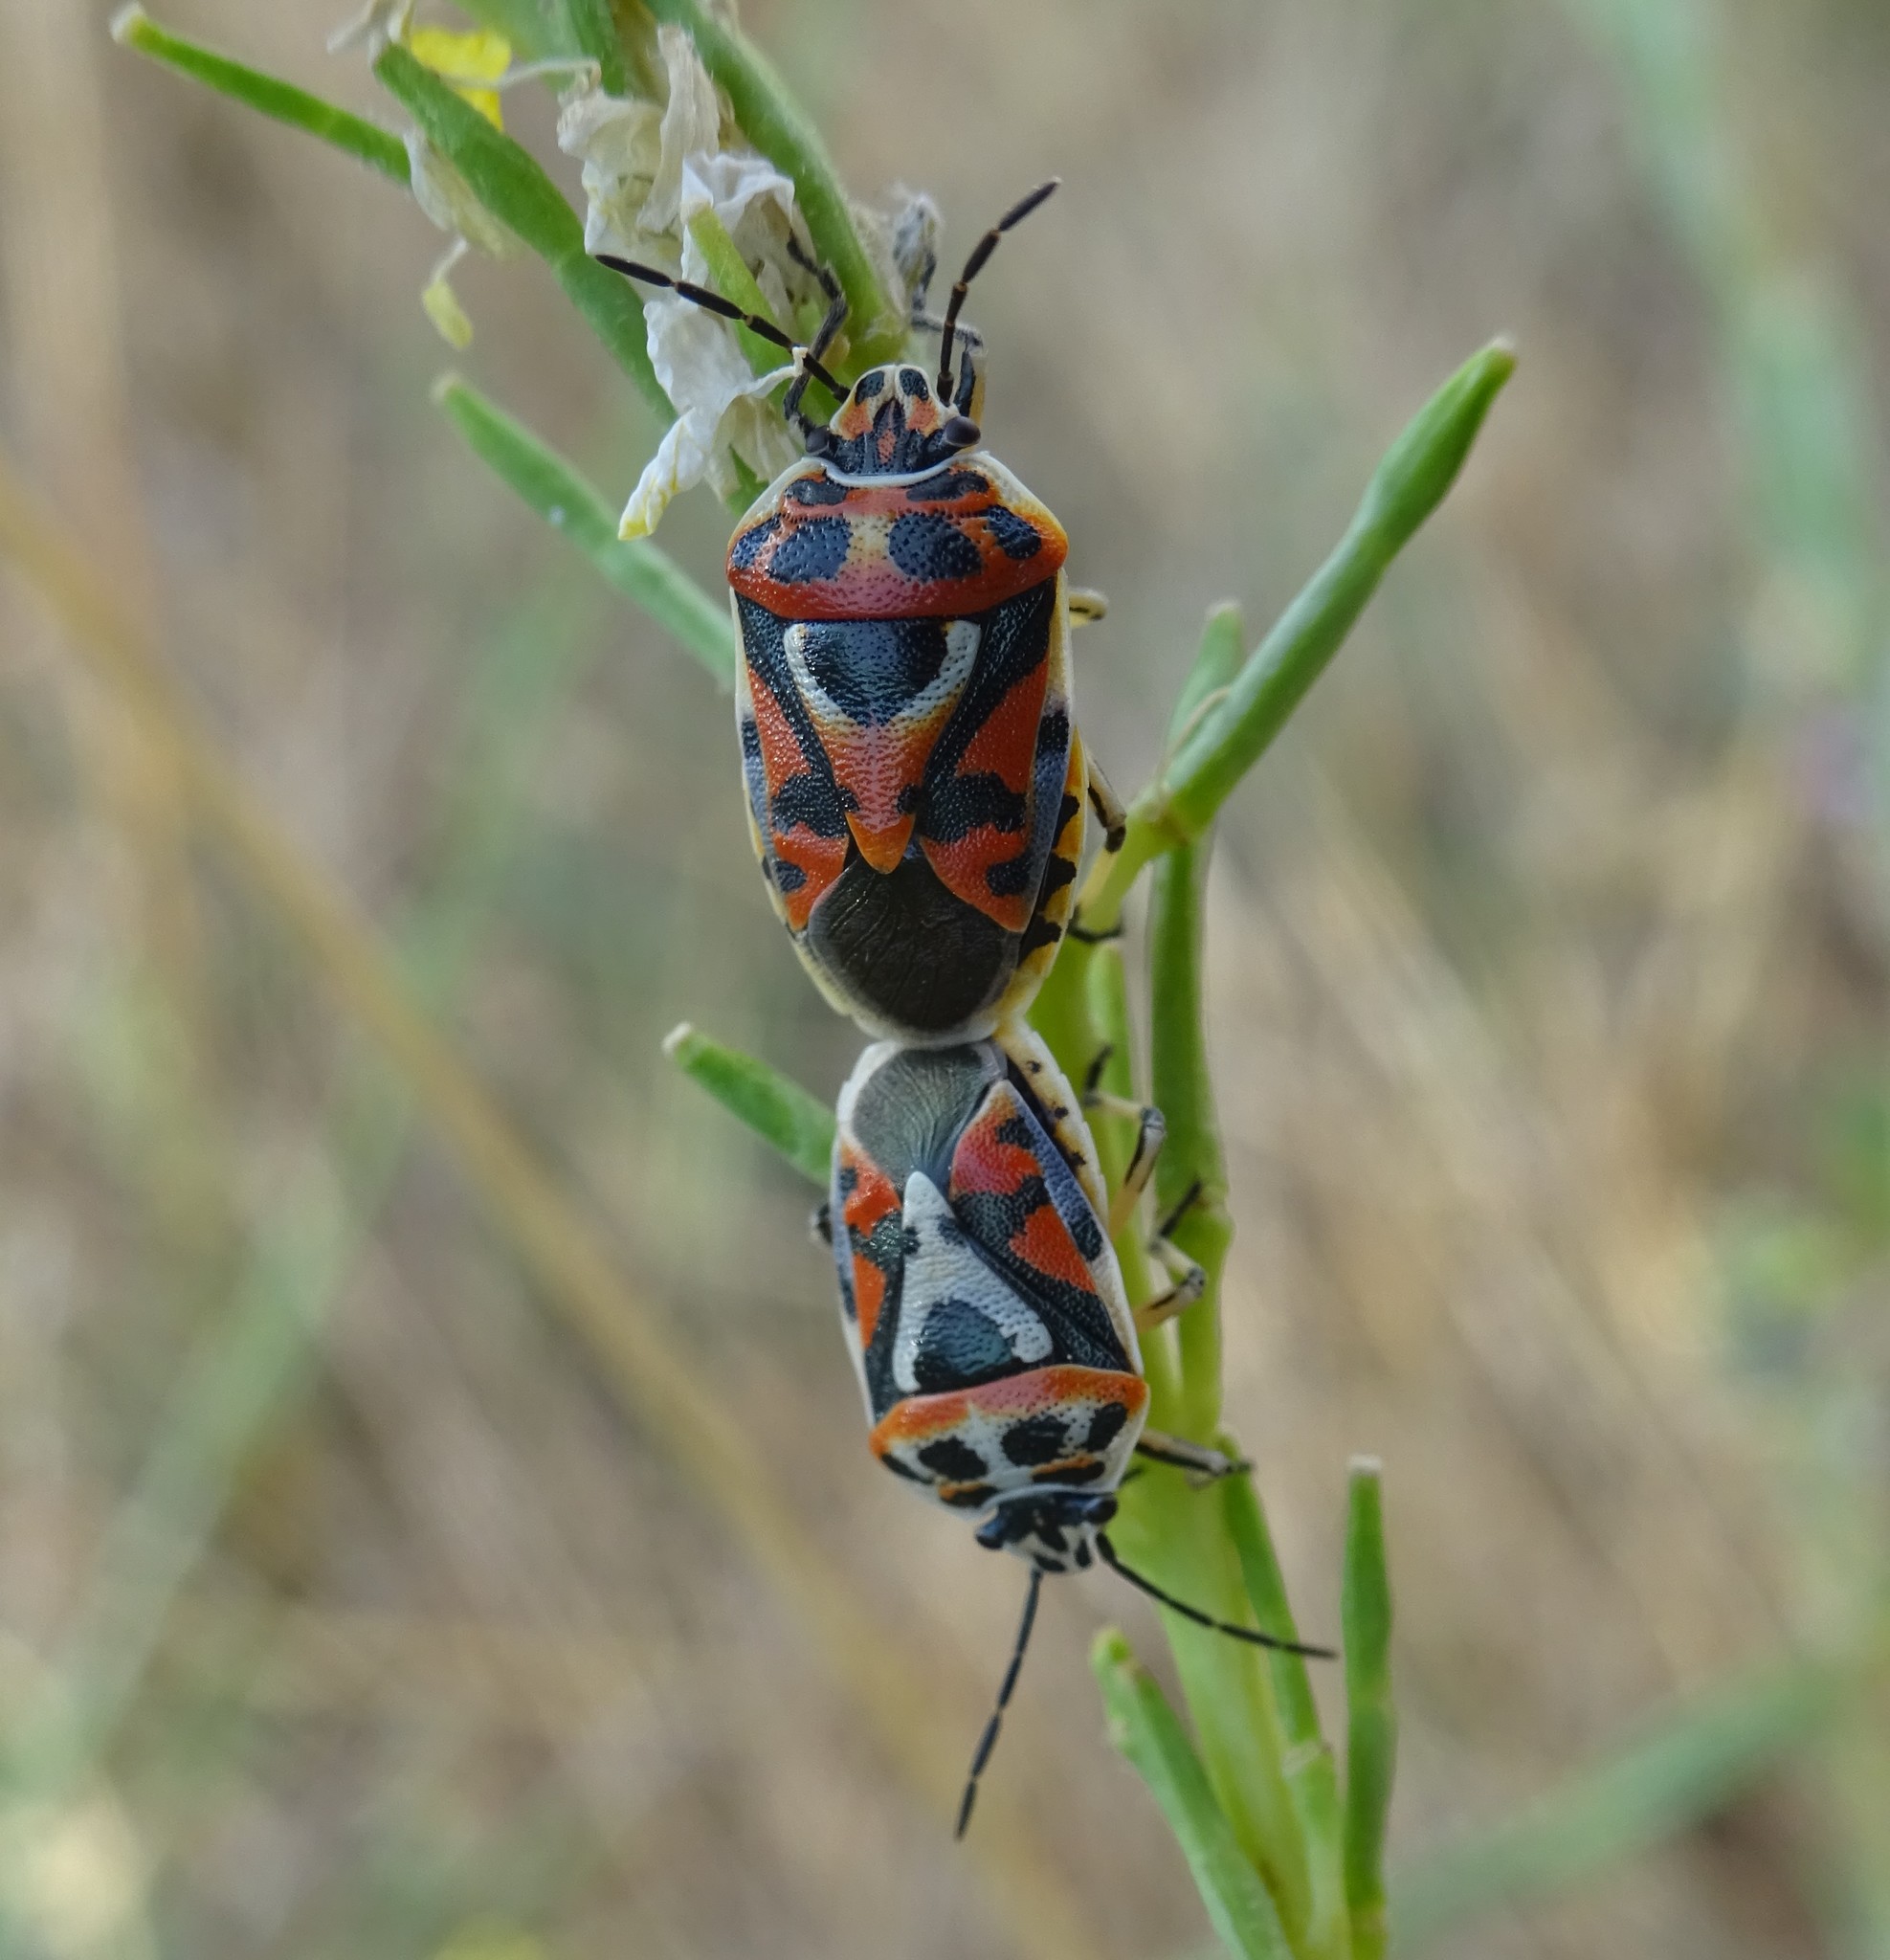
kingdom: Animalia
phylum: Arthropoda
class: Insecta
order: Hemiptera
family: Pentatomidae
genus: Eurydema
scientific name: Eurydema ornata
